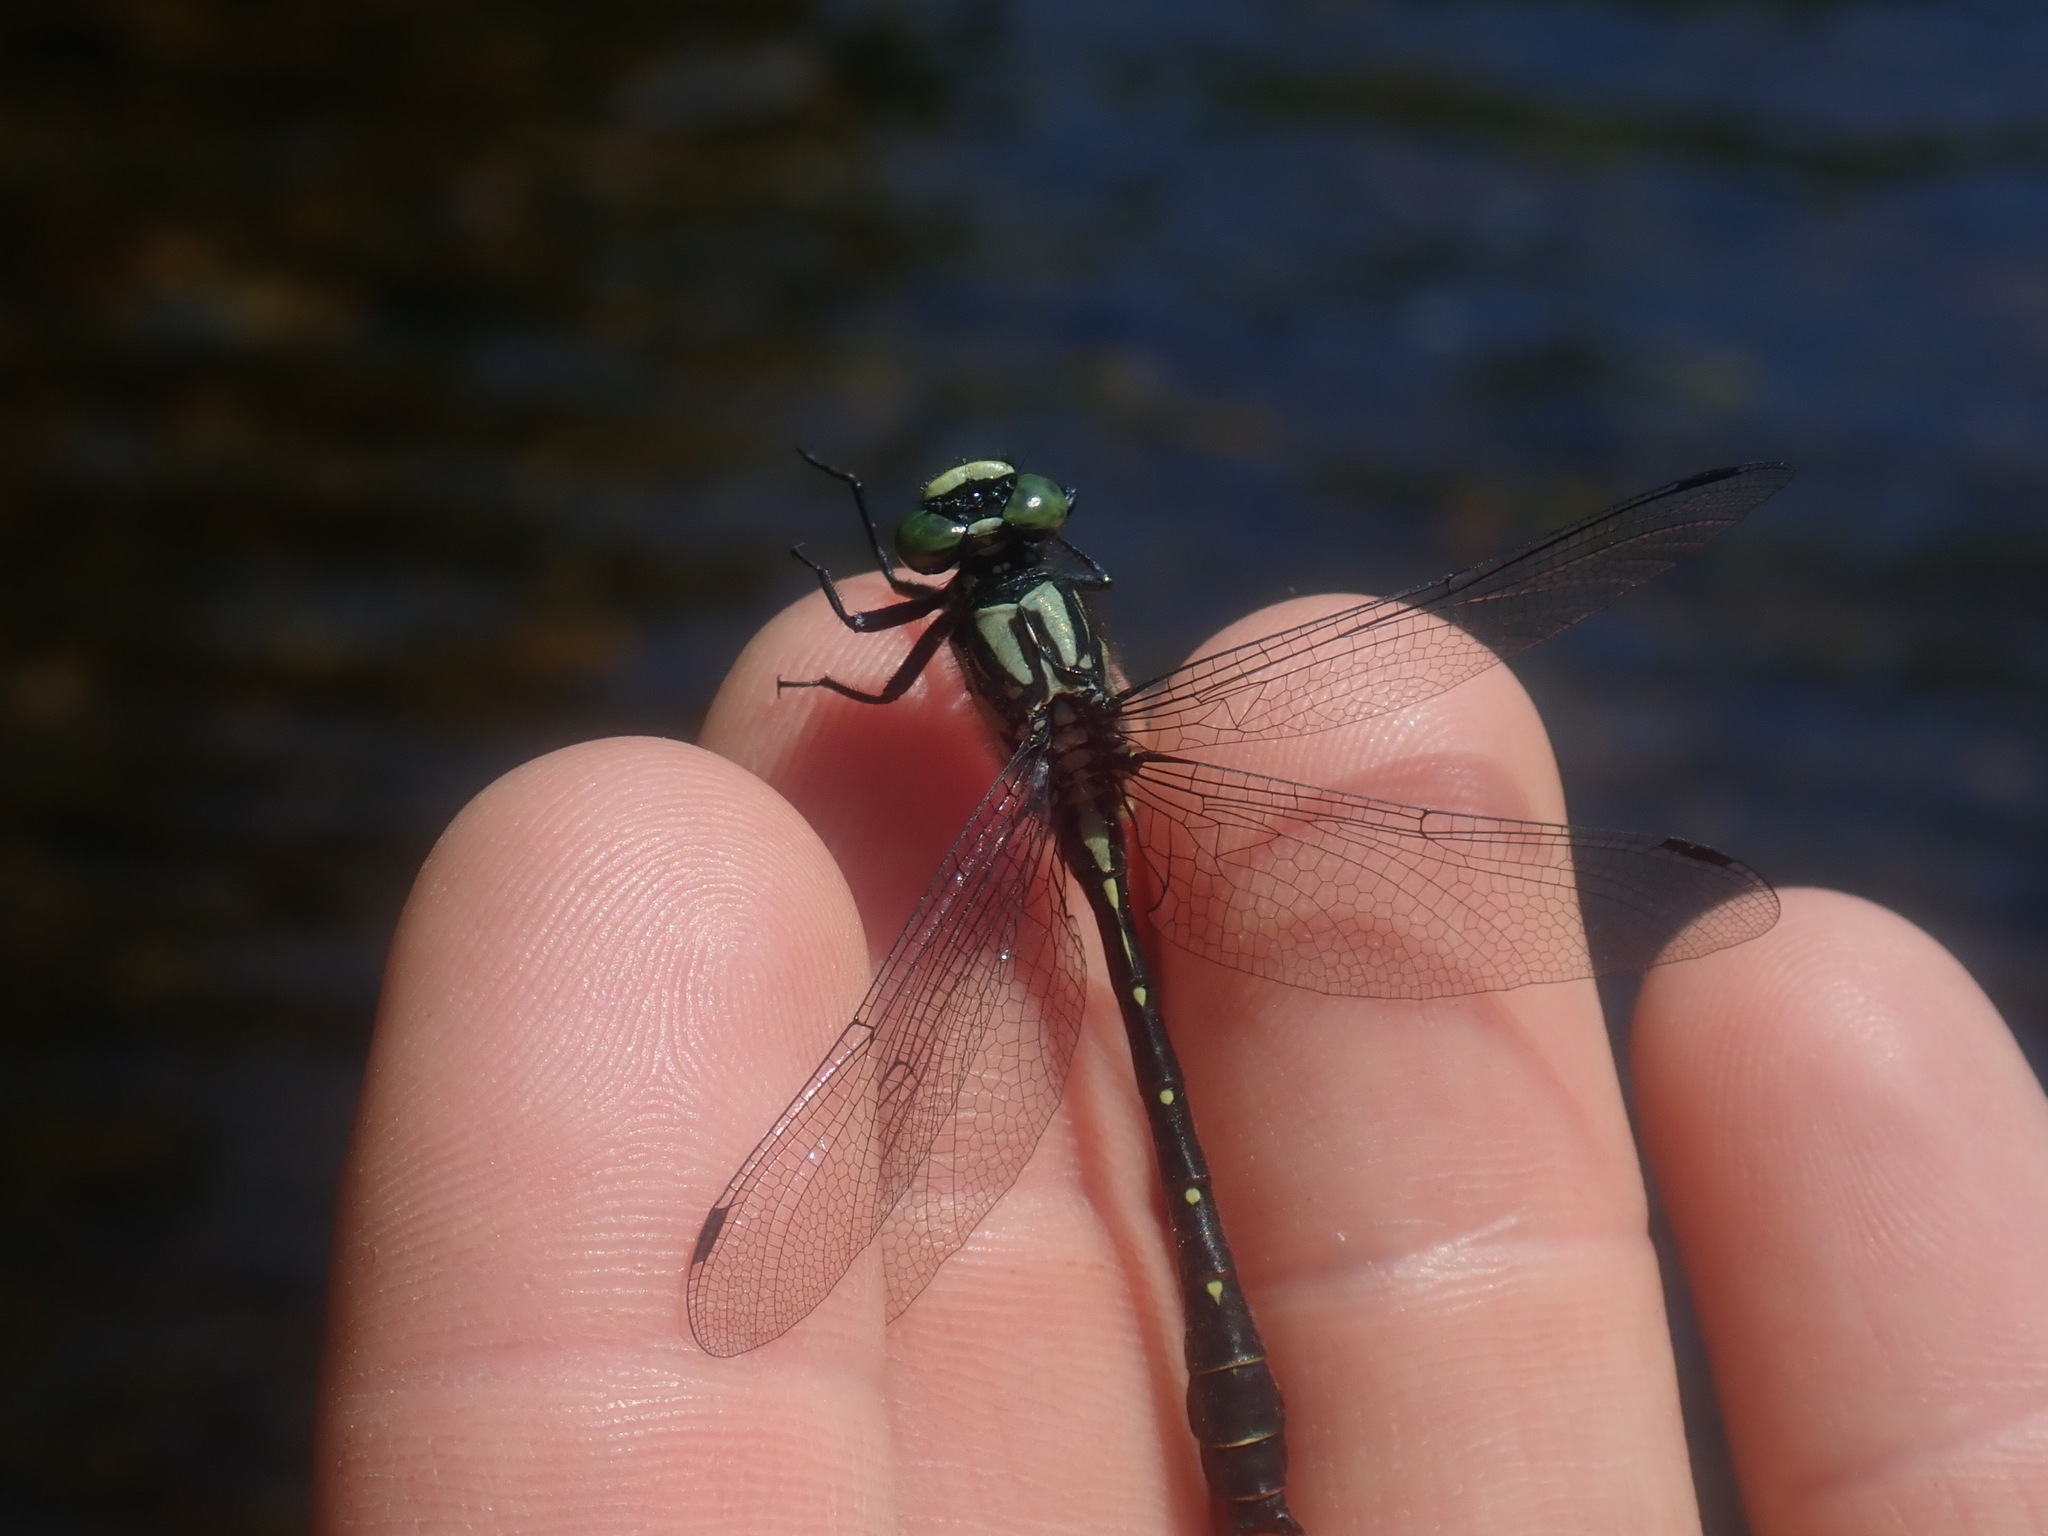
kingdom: Animalia
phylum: Arthropoda
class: Insecta
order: Odonata
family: Gomphidae
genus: Hylogomphus
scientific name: Hylogomphus adelphus
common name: Mustached clubtail
